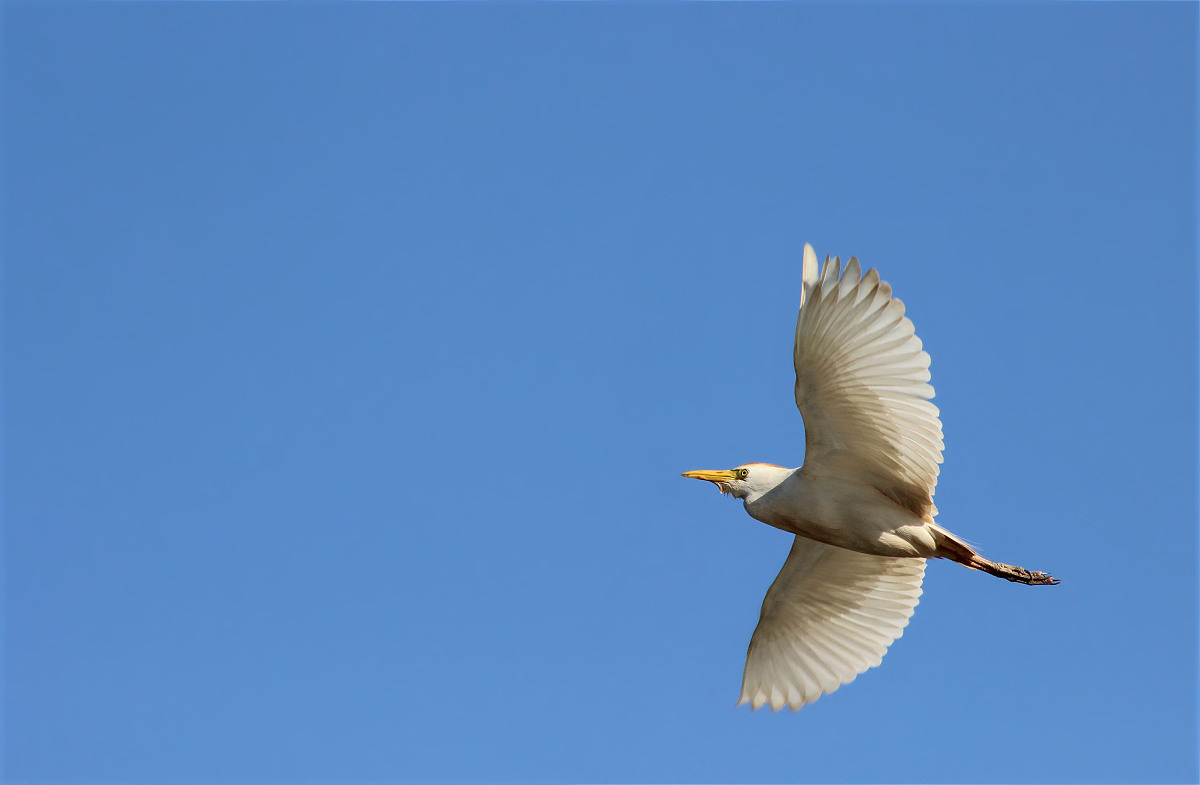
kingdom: Animalia
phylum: Chordata
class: Aves
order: Pelecaniformes
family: Ardeidae
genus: Bubulcus
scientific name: Bubulcus ibis
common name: Cattle egret
